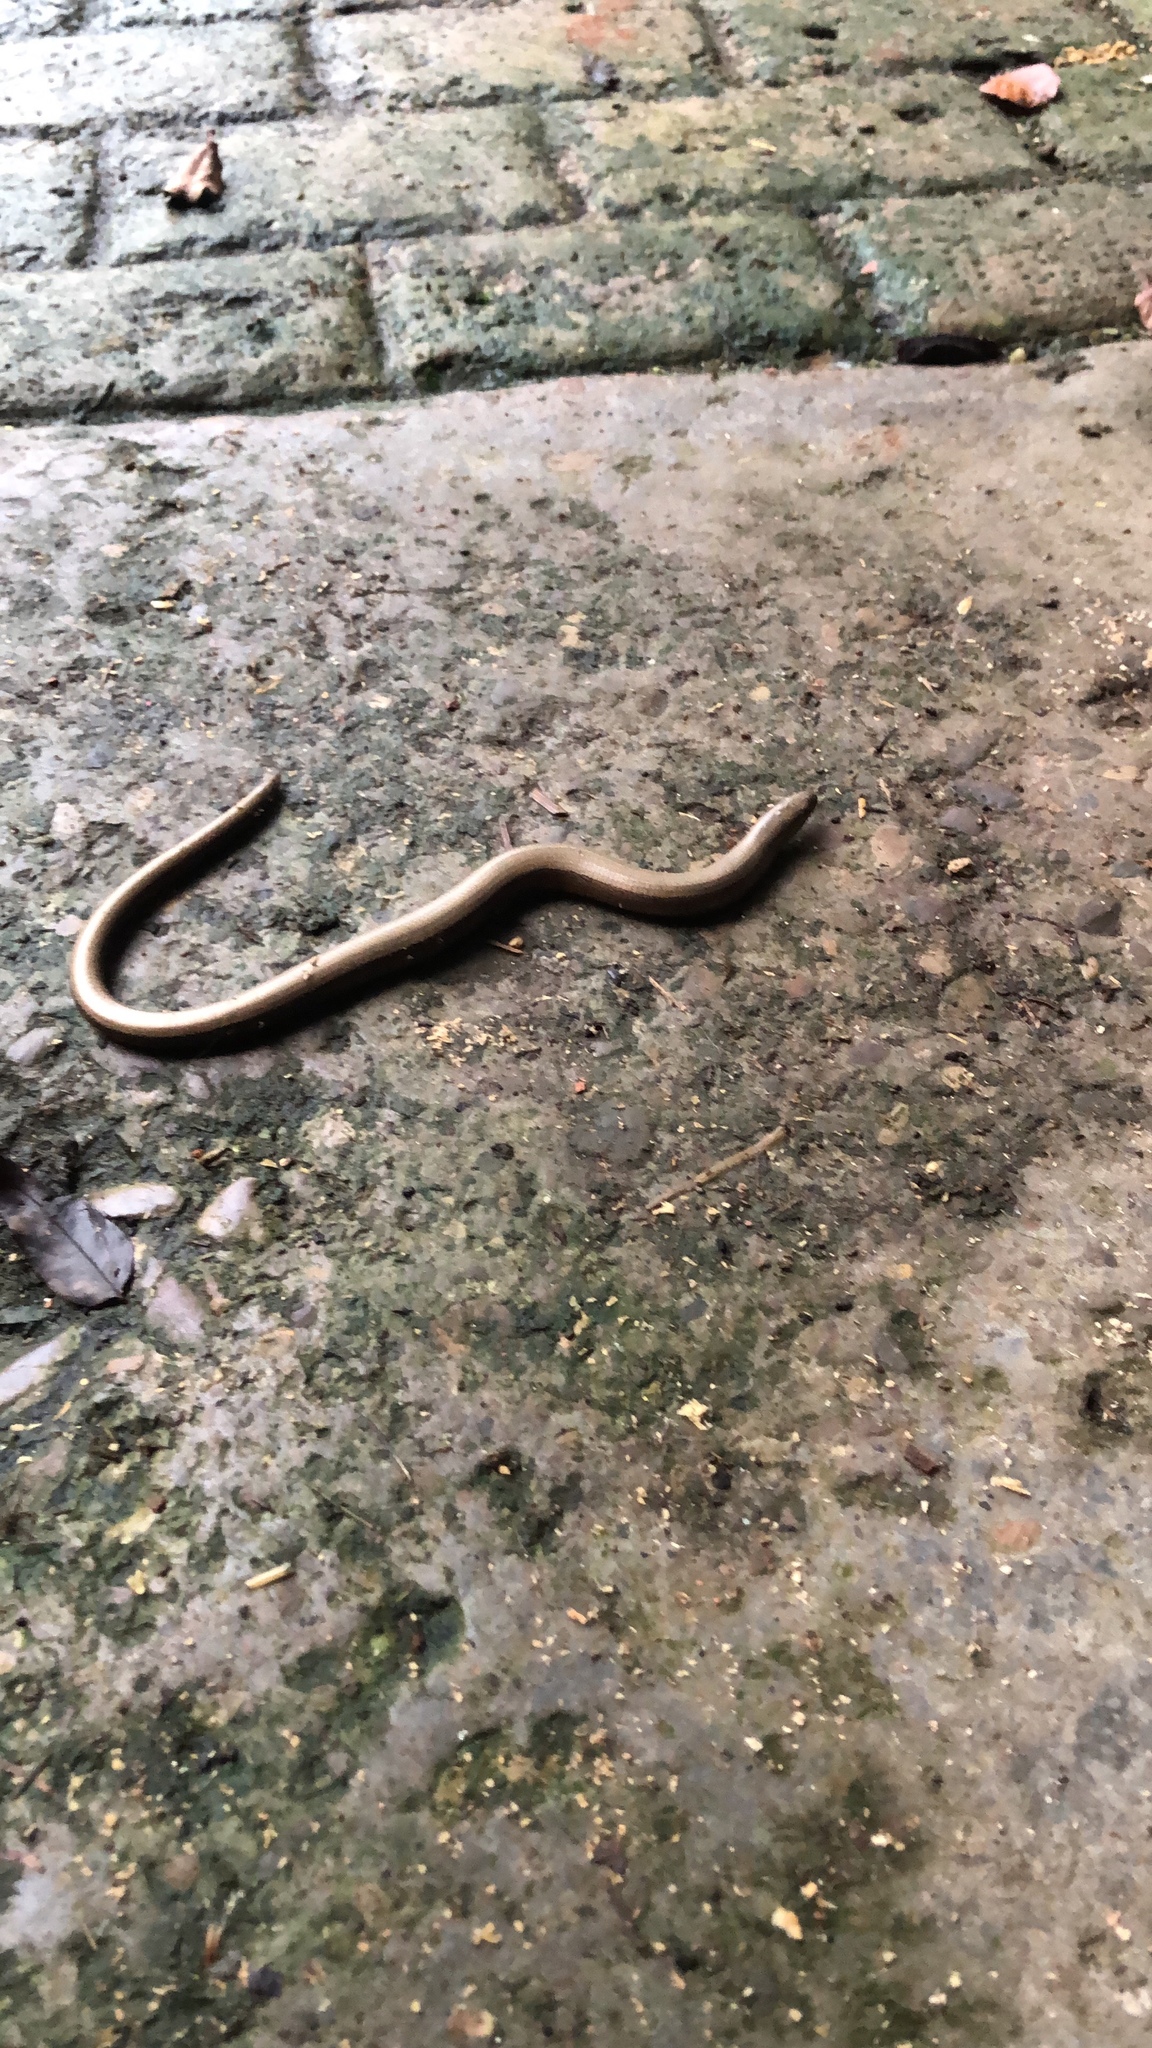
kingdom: Animalia
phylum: Chordata
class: Squamata
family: Anguidae
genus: Anguis
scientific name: Anguis fragilis
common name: Slow worm
